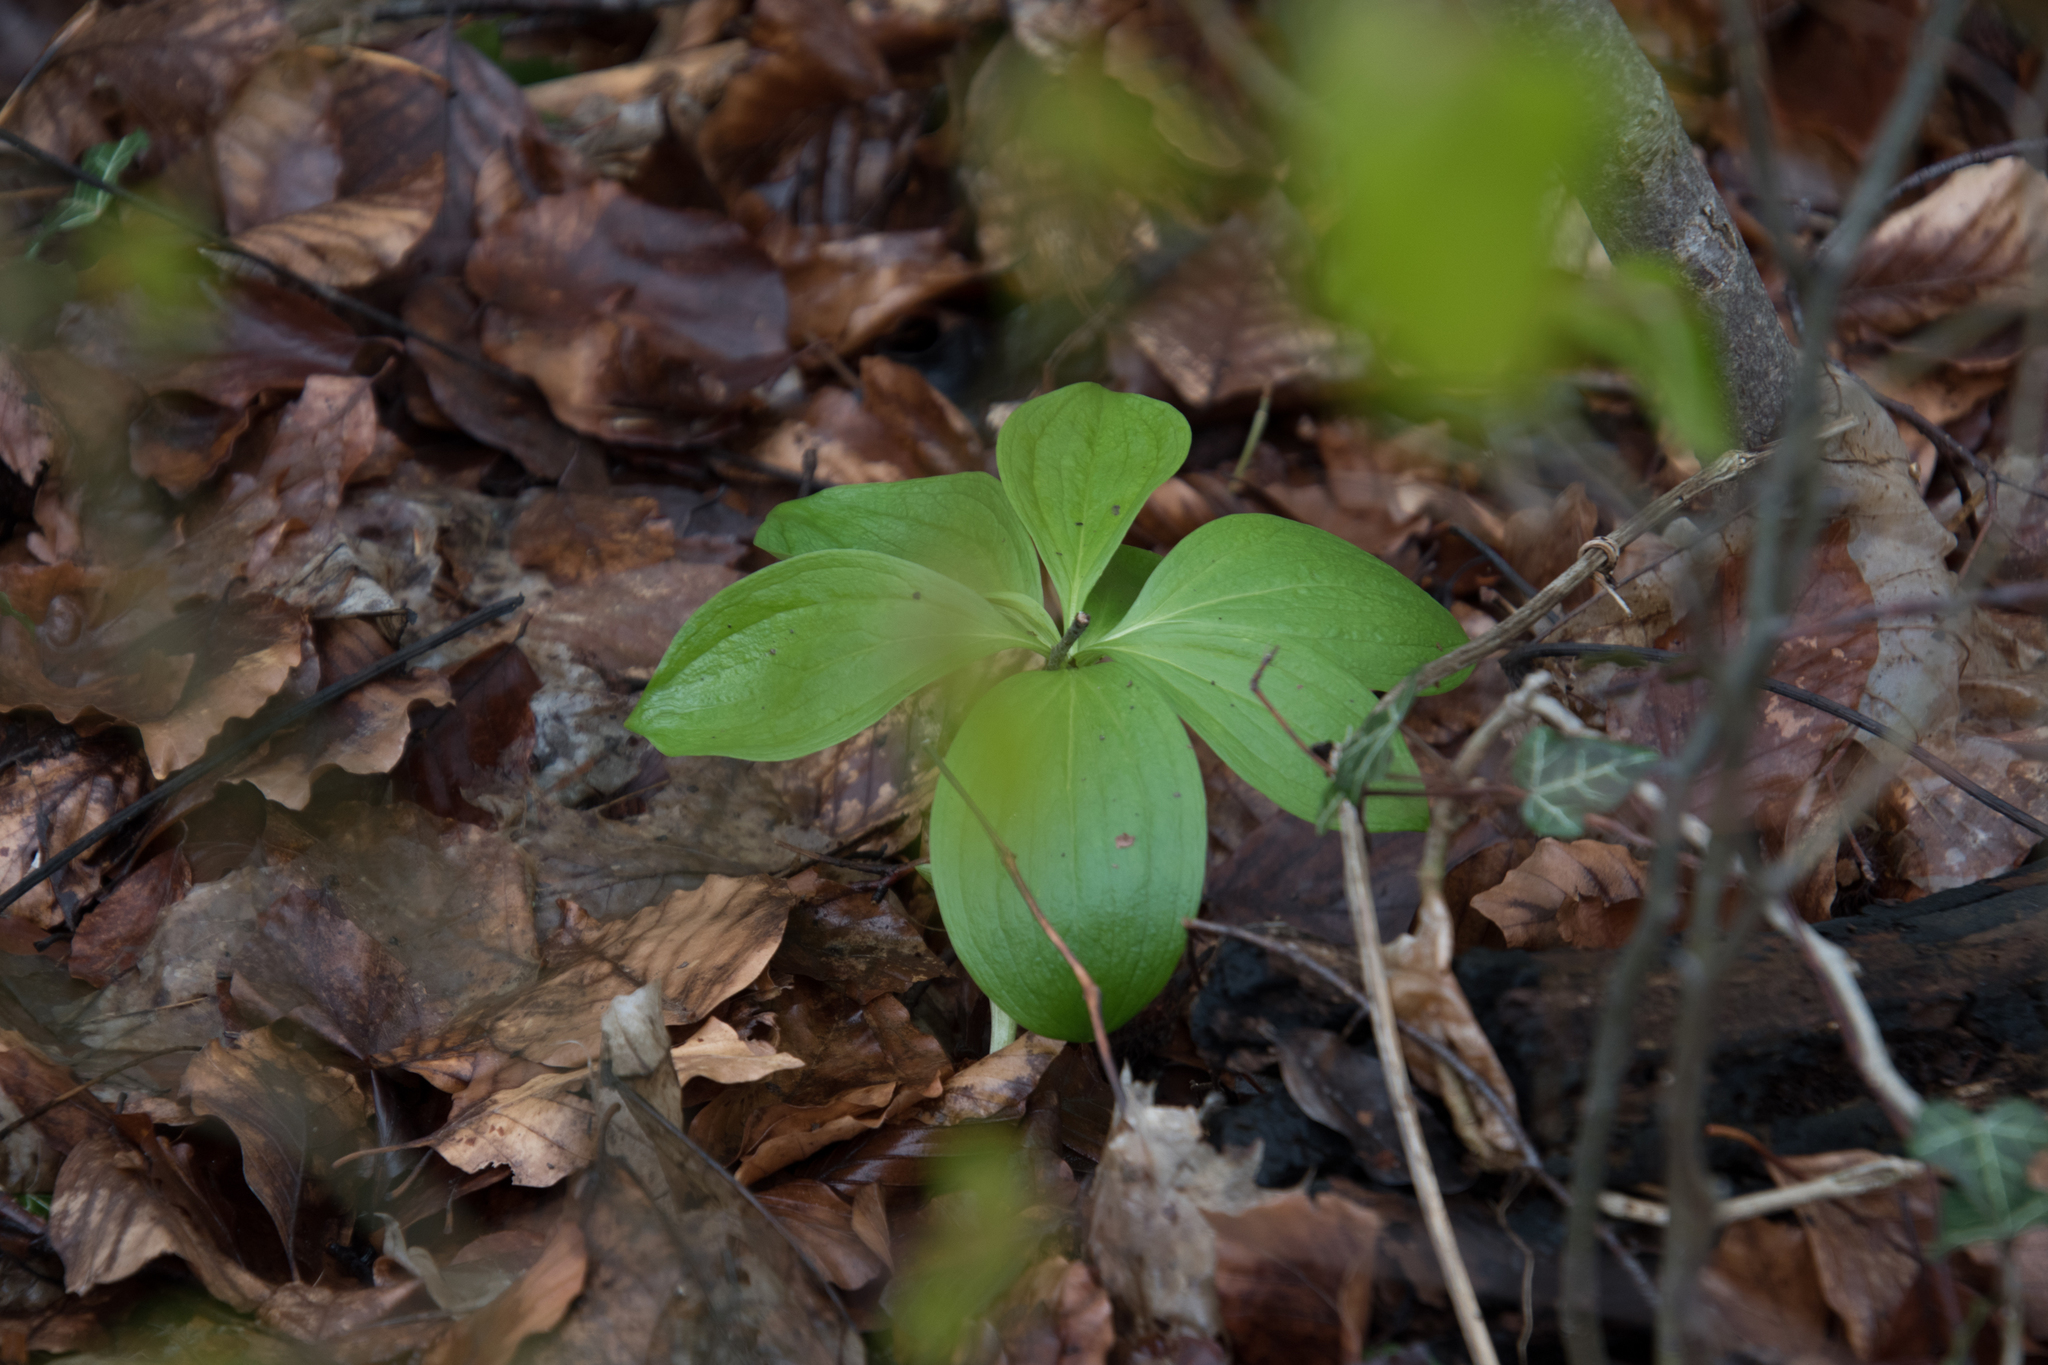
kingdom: Plantae
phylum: Tracheophyta
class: Liliopsida
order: Liliales
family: Melanthiaceae
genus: Paris
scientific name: Paris quadrifolia
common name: Herb-paris
